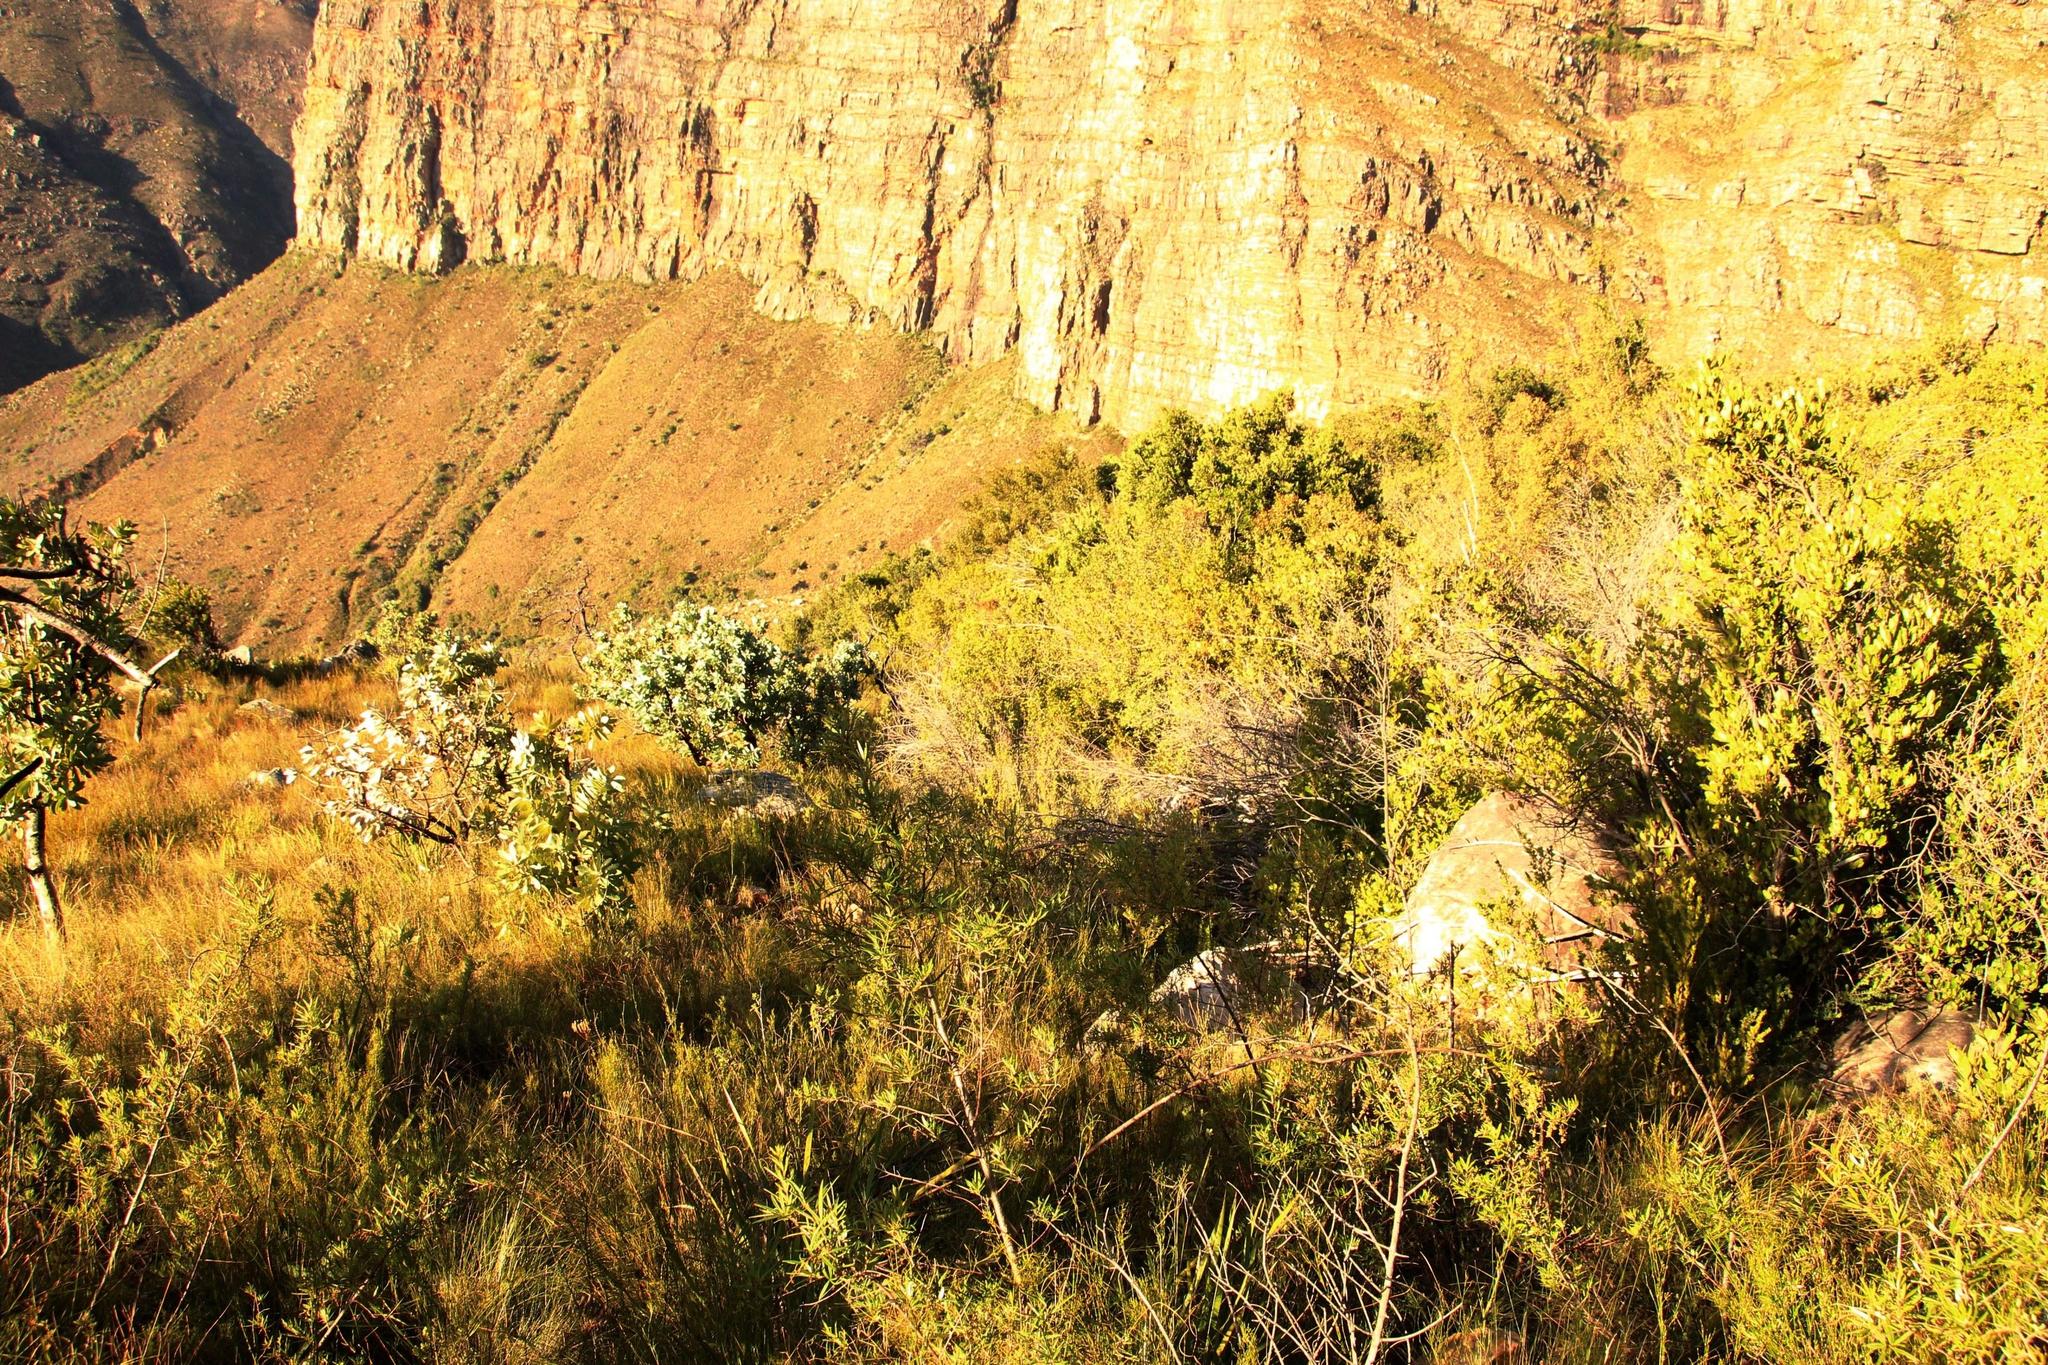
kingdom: Plantae
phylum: Tracheophyta
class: Magnoliopsida
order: Proteales
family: Proteaceae
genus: Protea
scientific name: Protea nitida
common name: Tree protea
